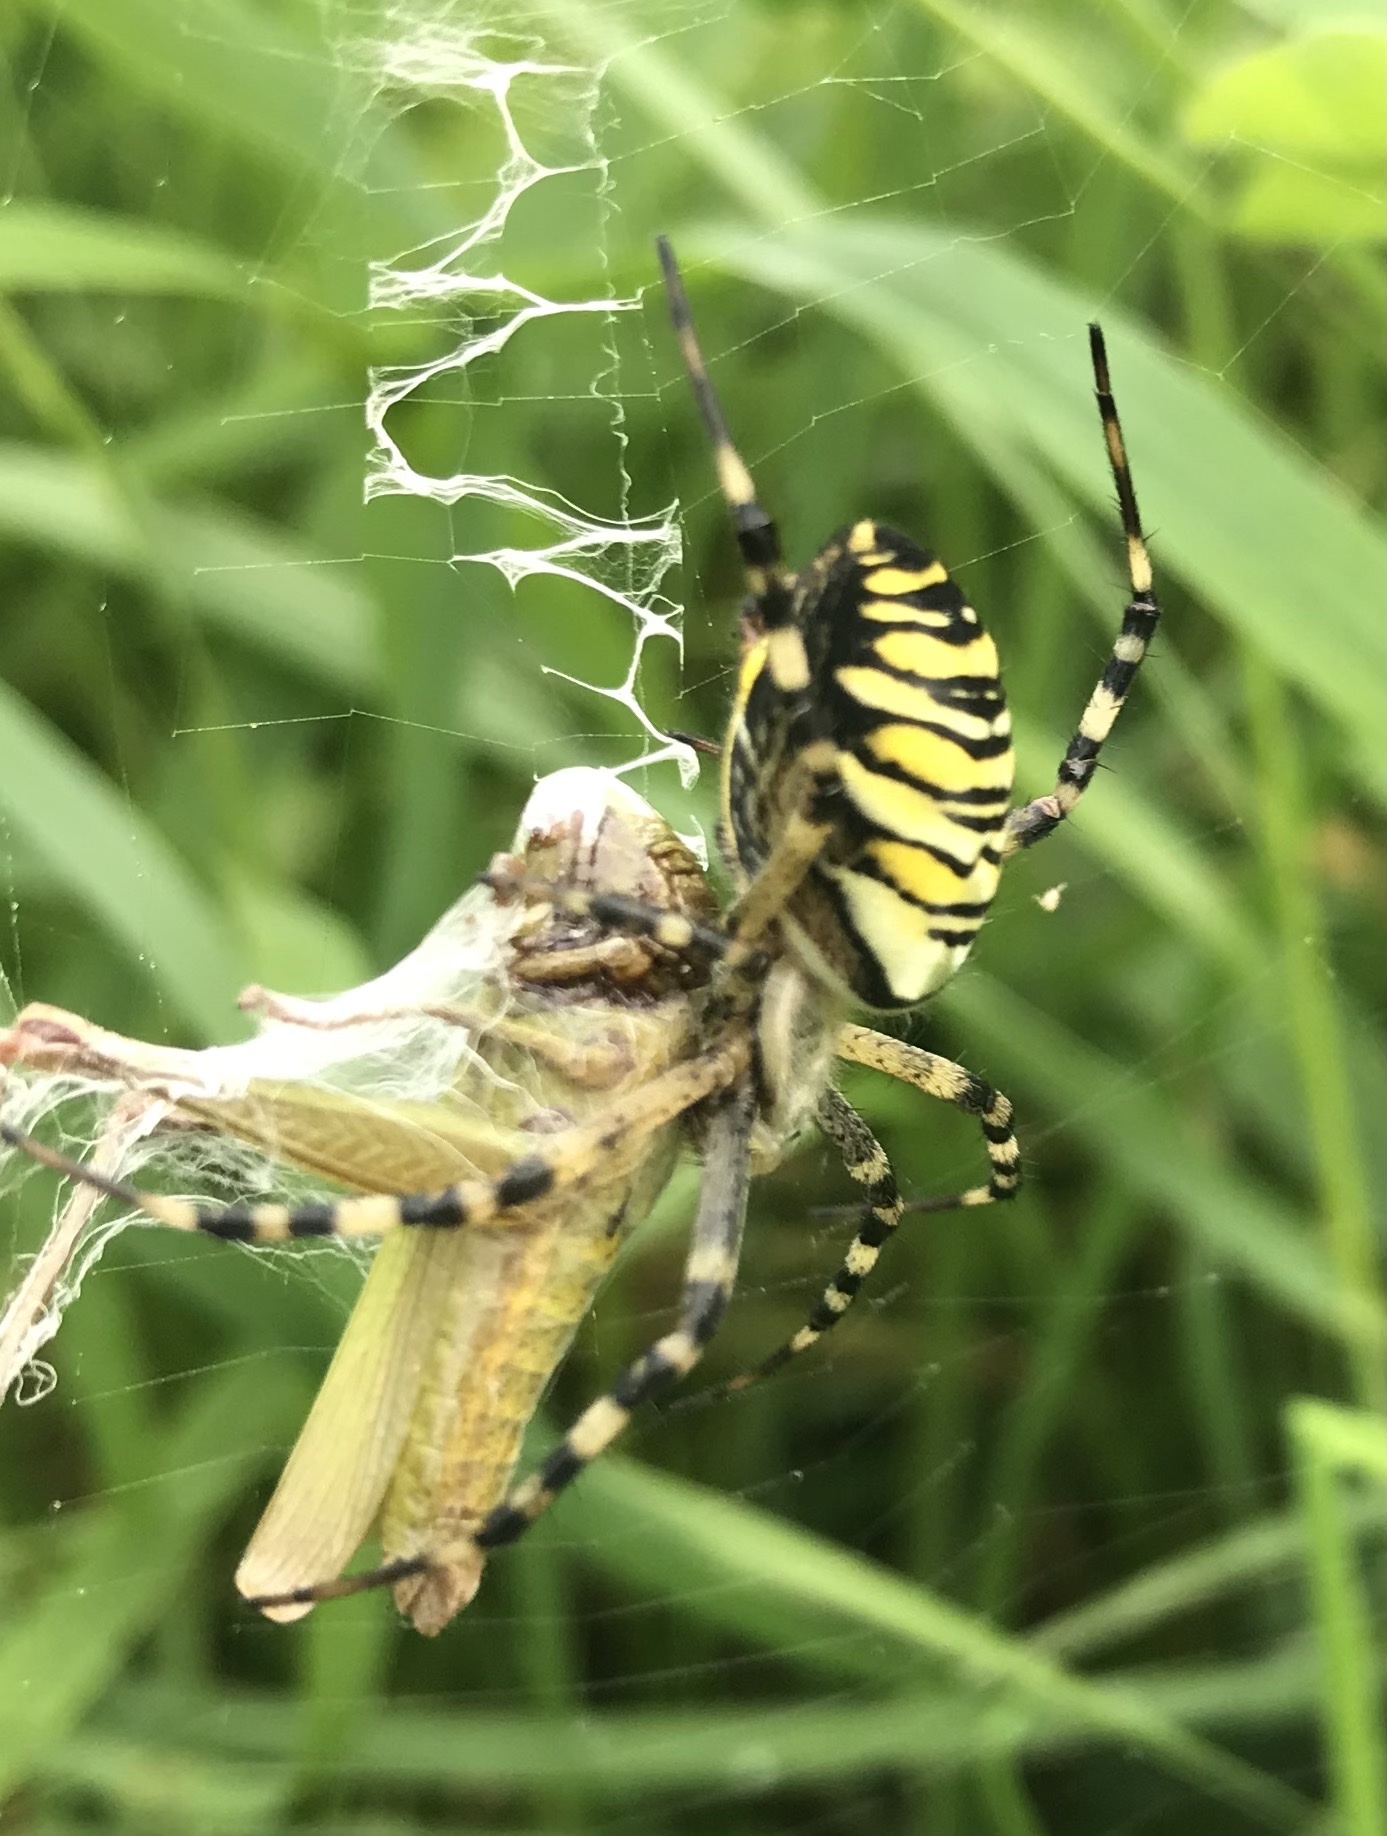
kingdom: Animalia
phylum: Arthropoda
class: Arachnida
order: Araneae
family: Araneidae
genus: Argiope
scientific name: Argiope bruennichi
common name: Wasp spider
